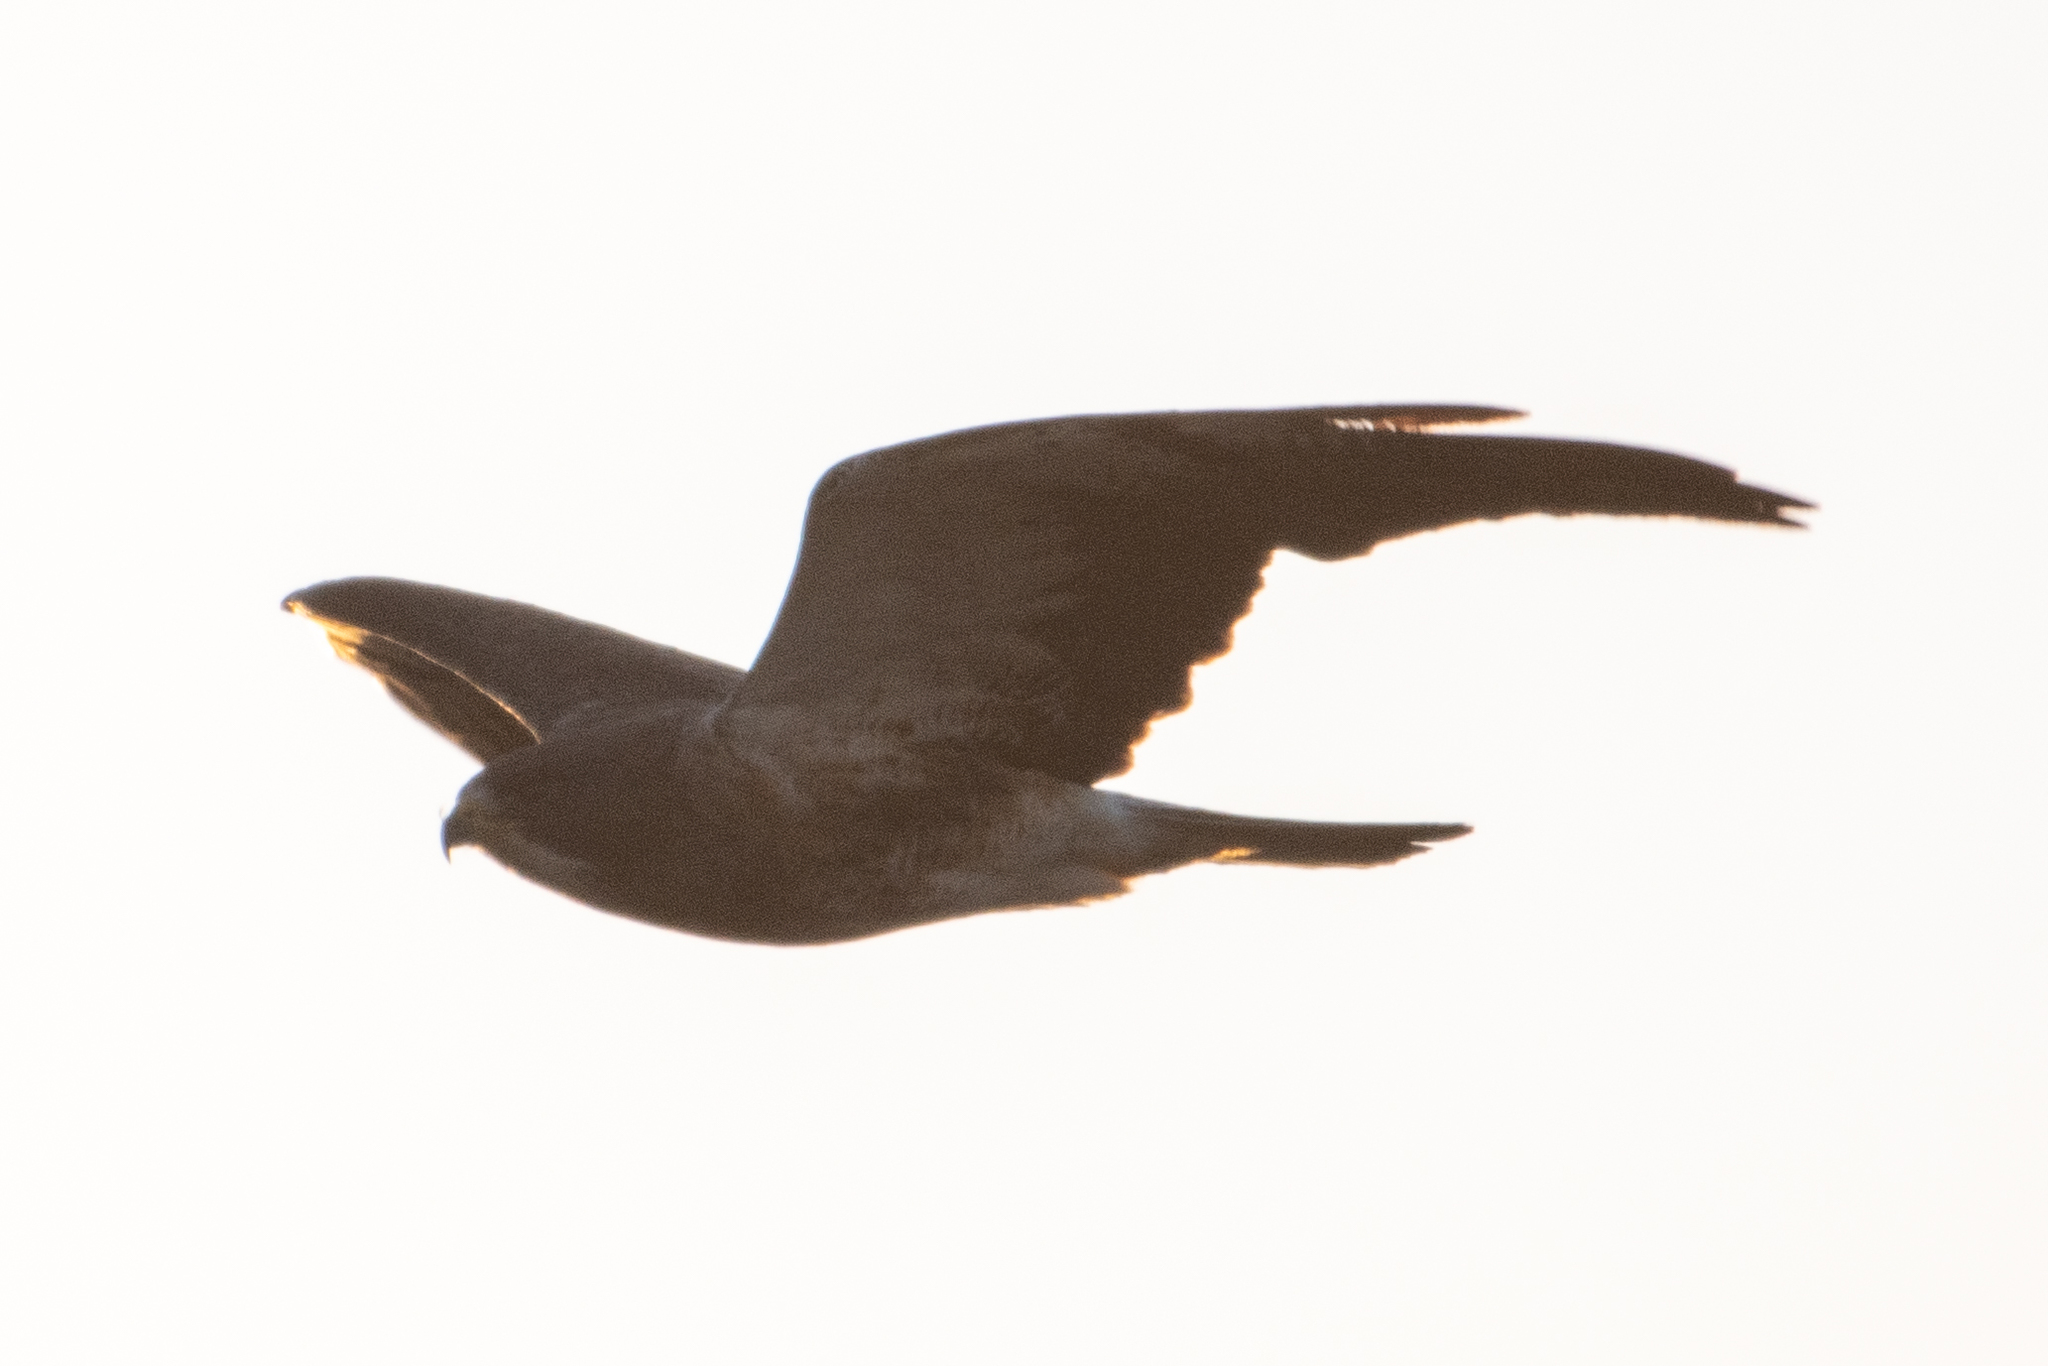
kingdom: Animalia
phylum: Chordata
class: Aves
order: Accipitriformes
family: Accipitridae
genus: Buteo
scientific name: Buteo swainsoni
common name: Swainson's hawk
